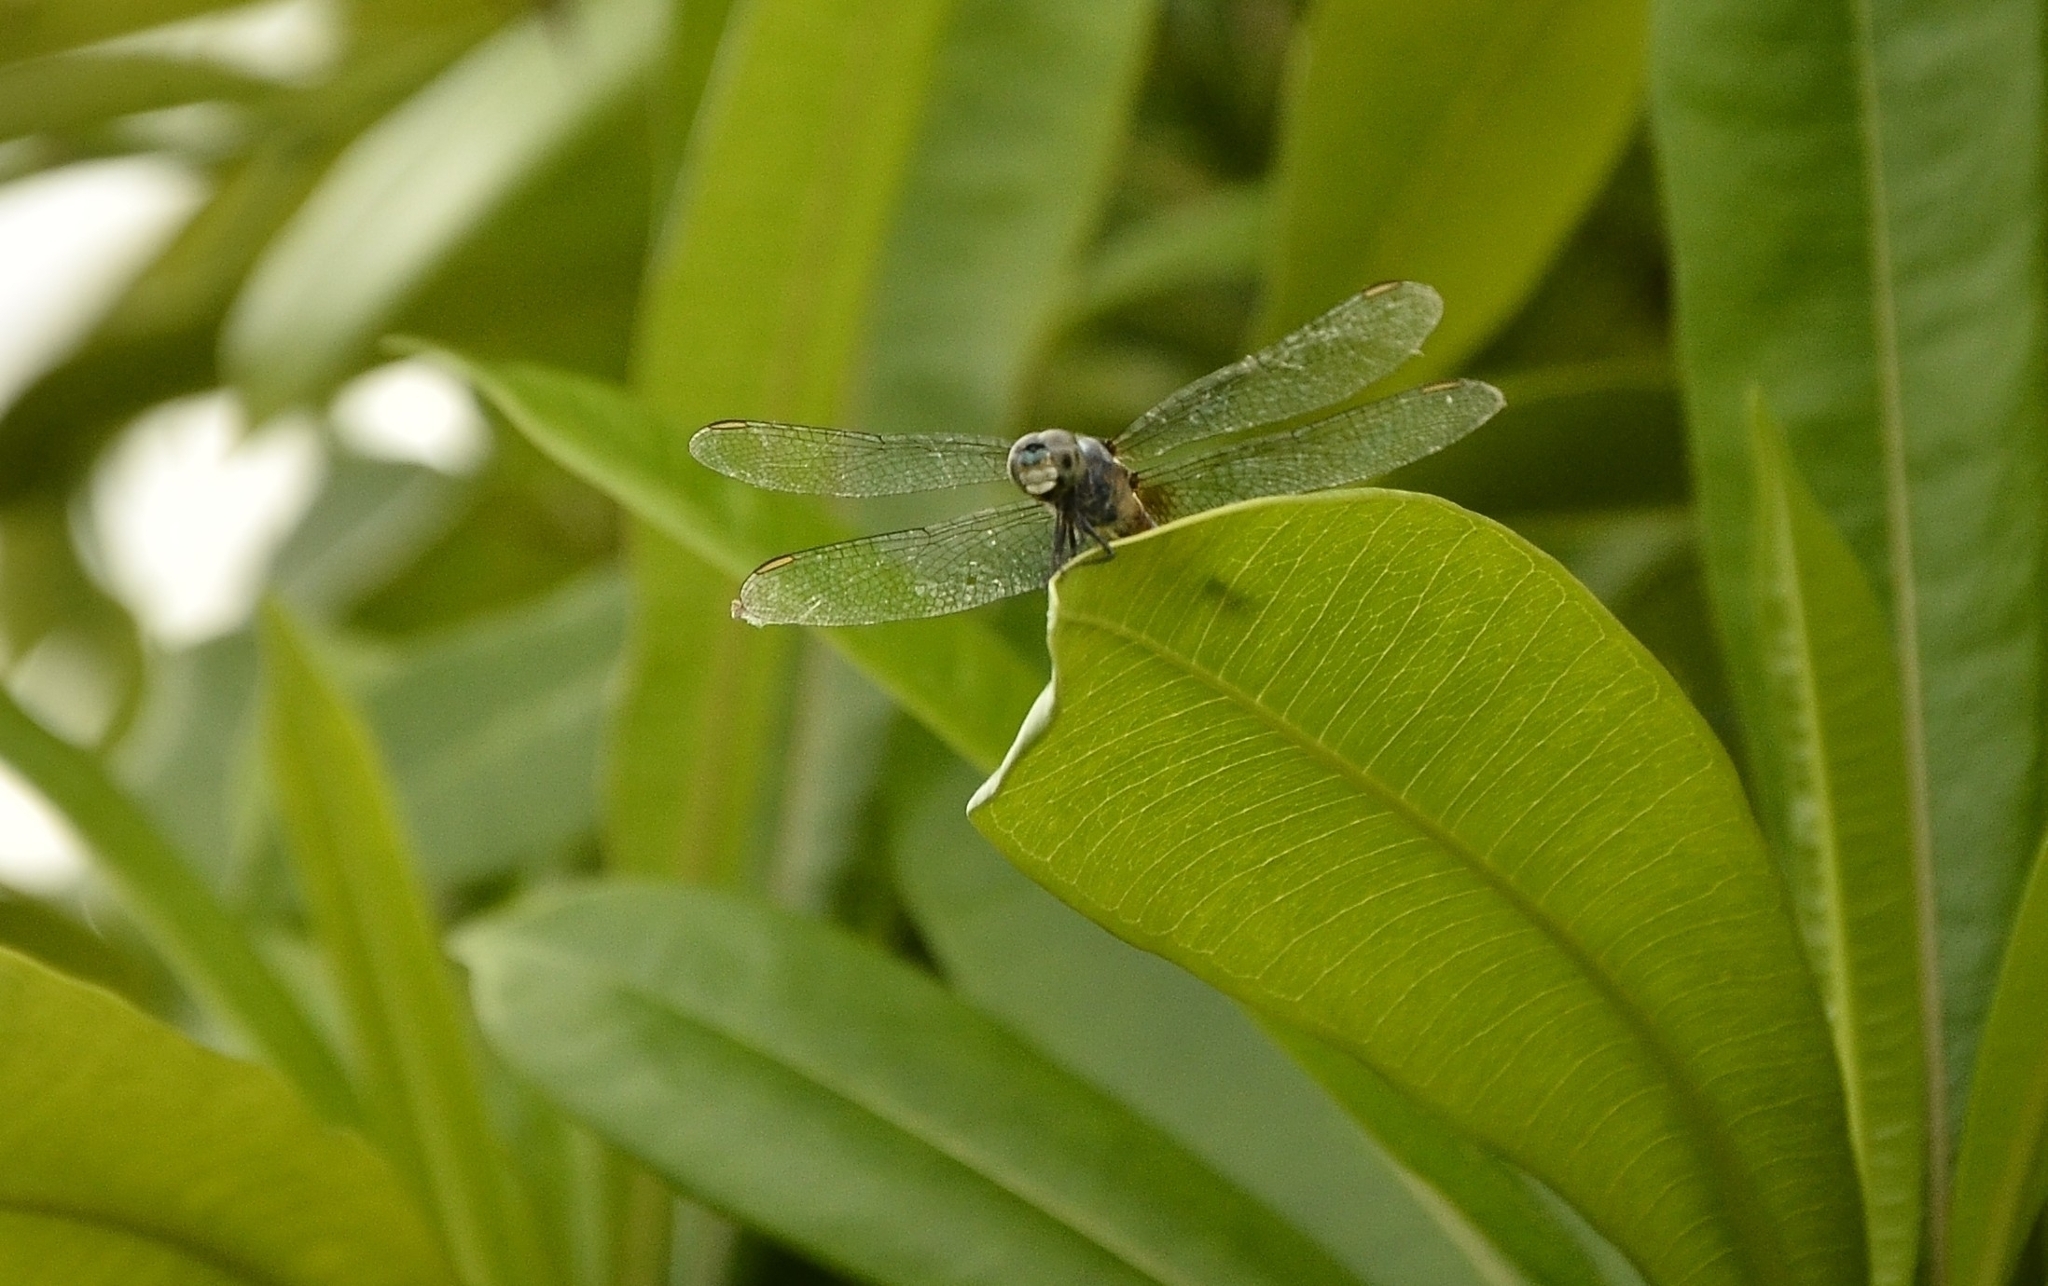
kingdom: Animalia
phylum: Arthropoda
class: Insecta
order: Odonata
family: Libellulidae
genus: Brachydiplax
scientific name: Brachydiplax chalybea
